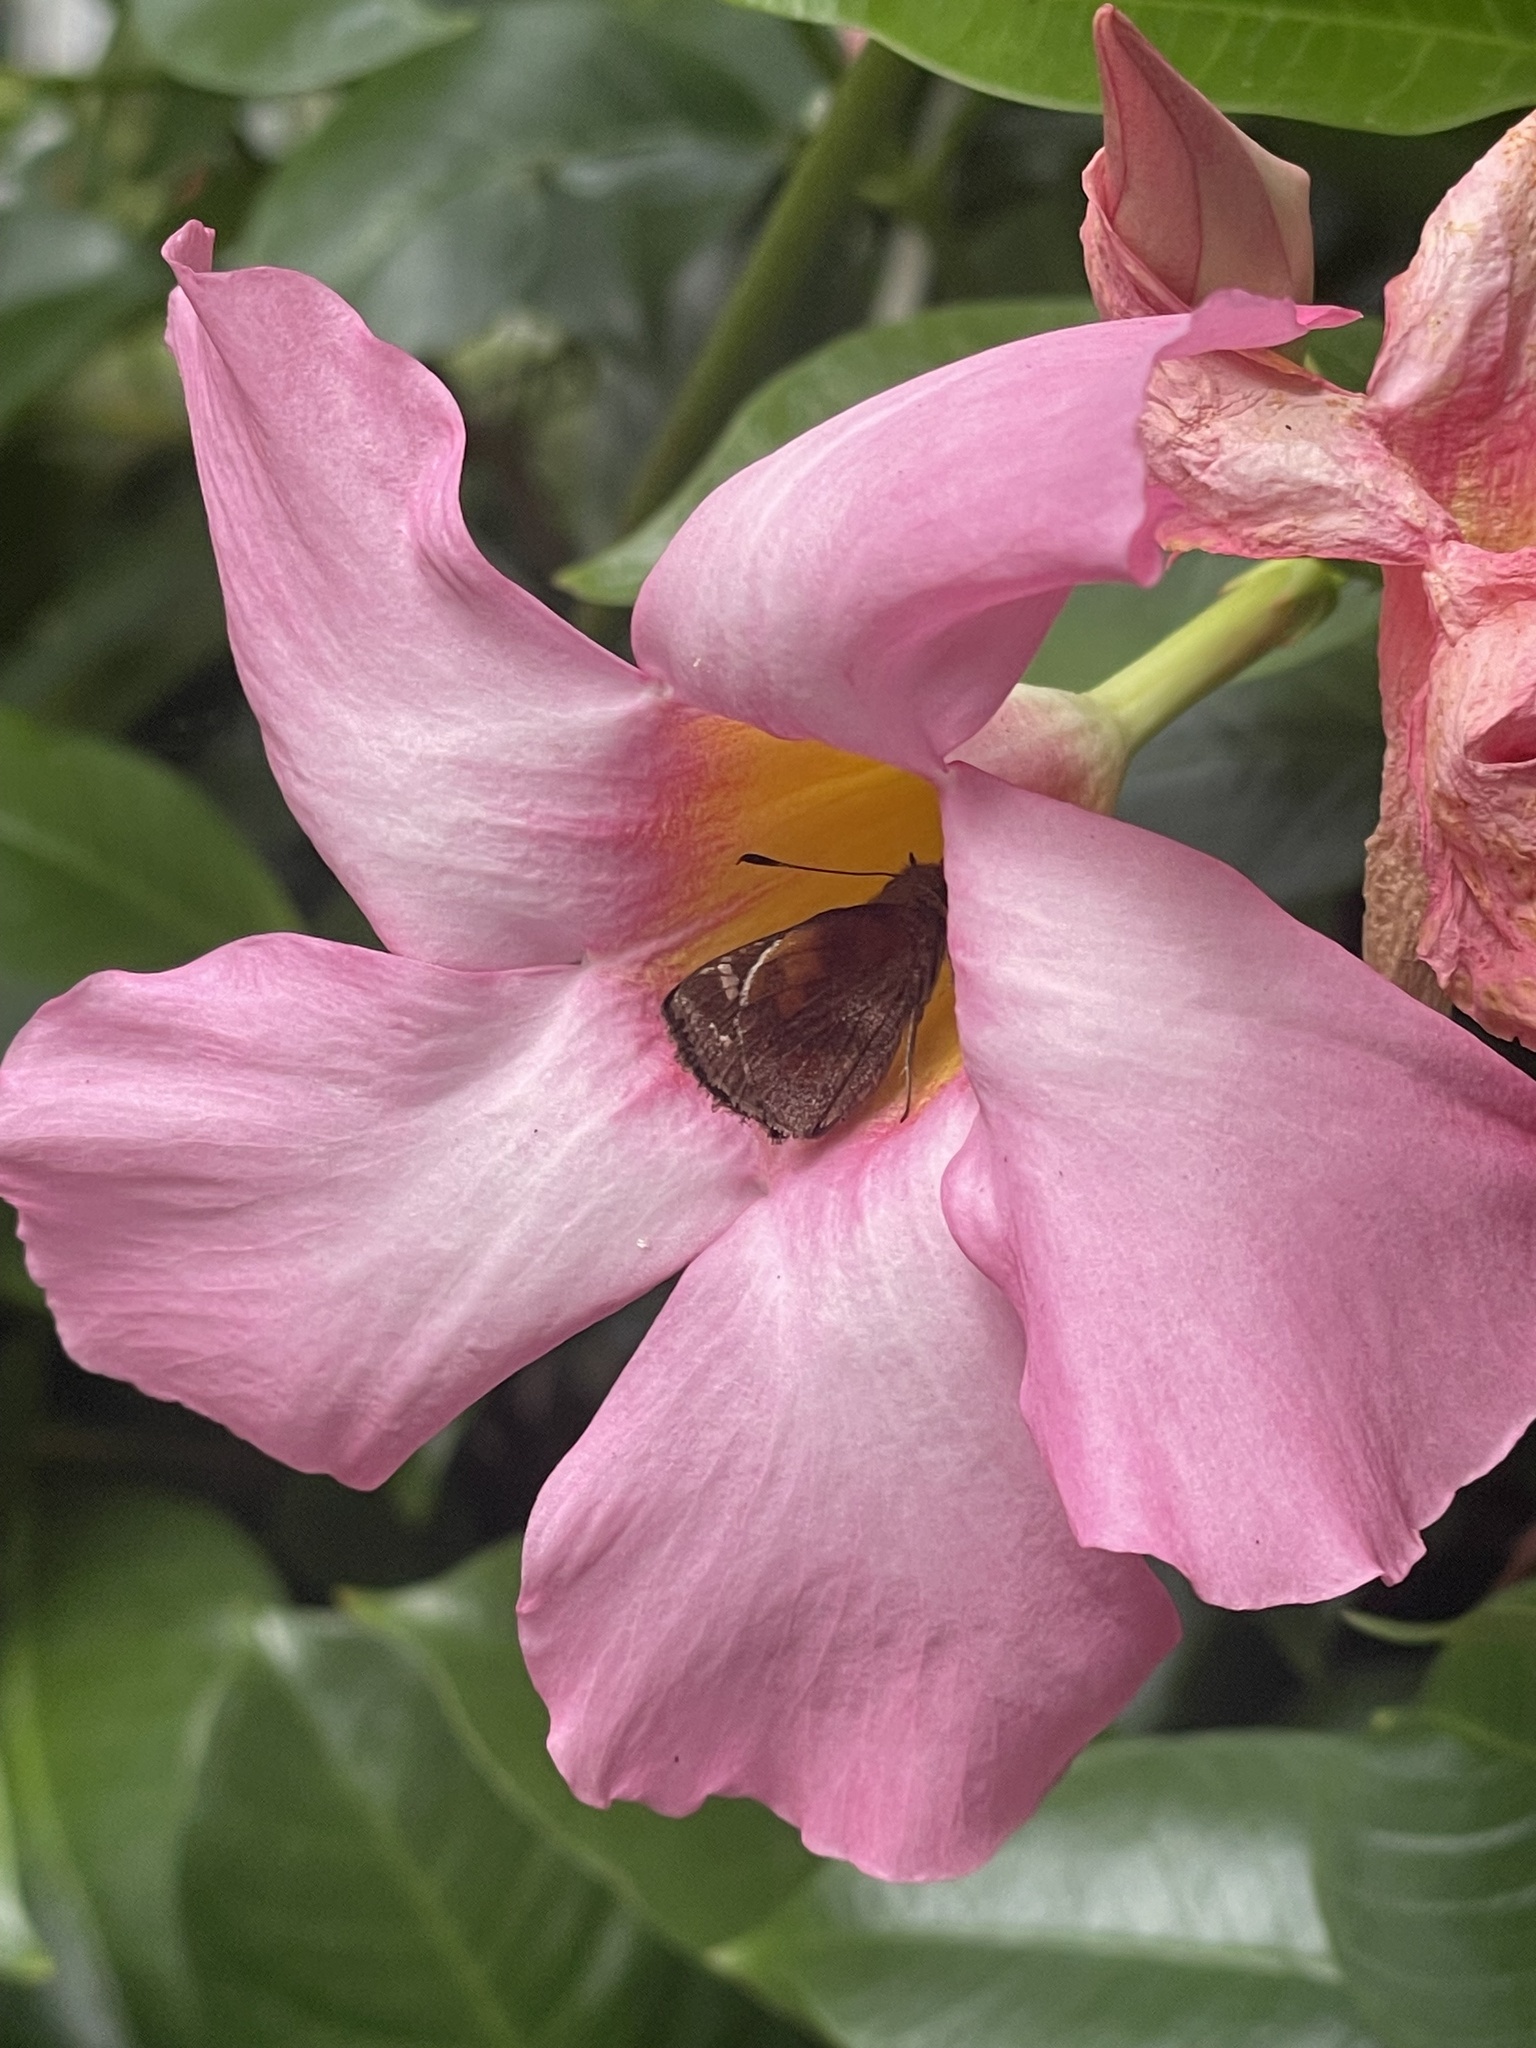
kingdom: Animalia
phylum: Arthropoda
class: Insecta
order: Lepidoptera
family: Hesperiidae
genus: Lon
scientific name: Lon zabulon
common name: Zabulon skipper
